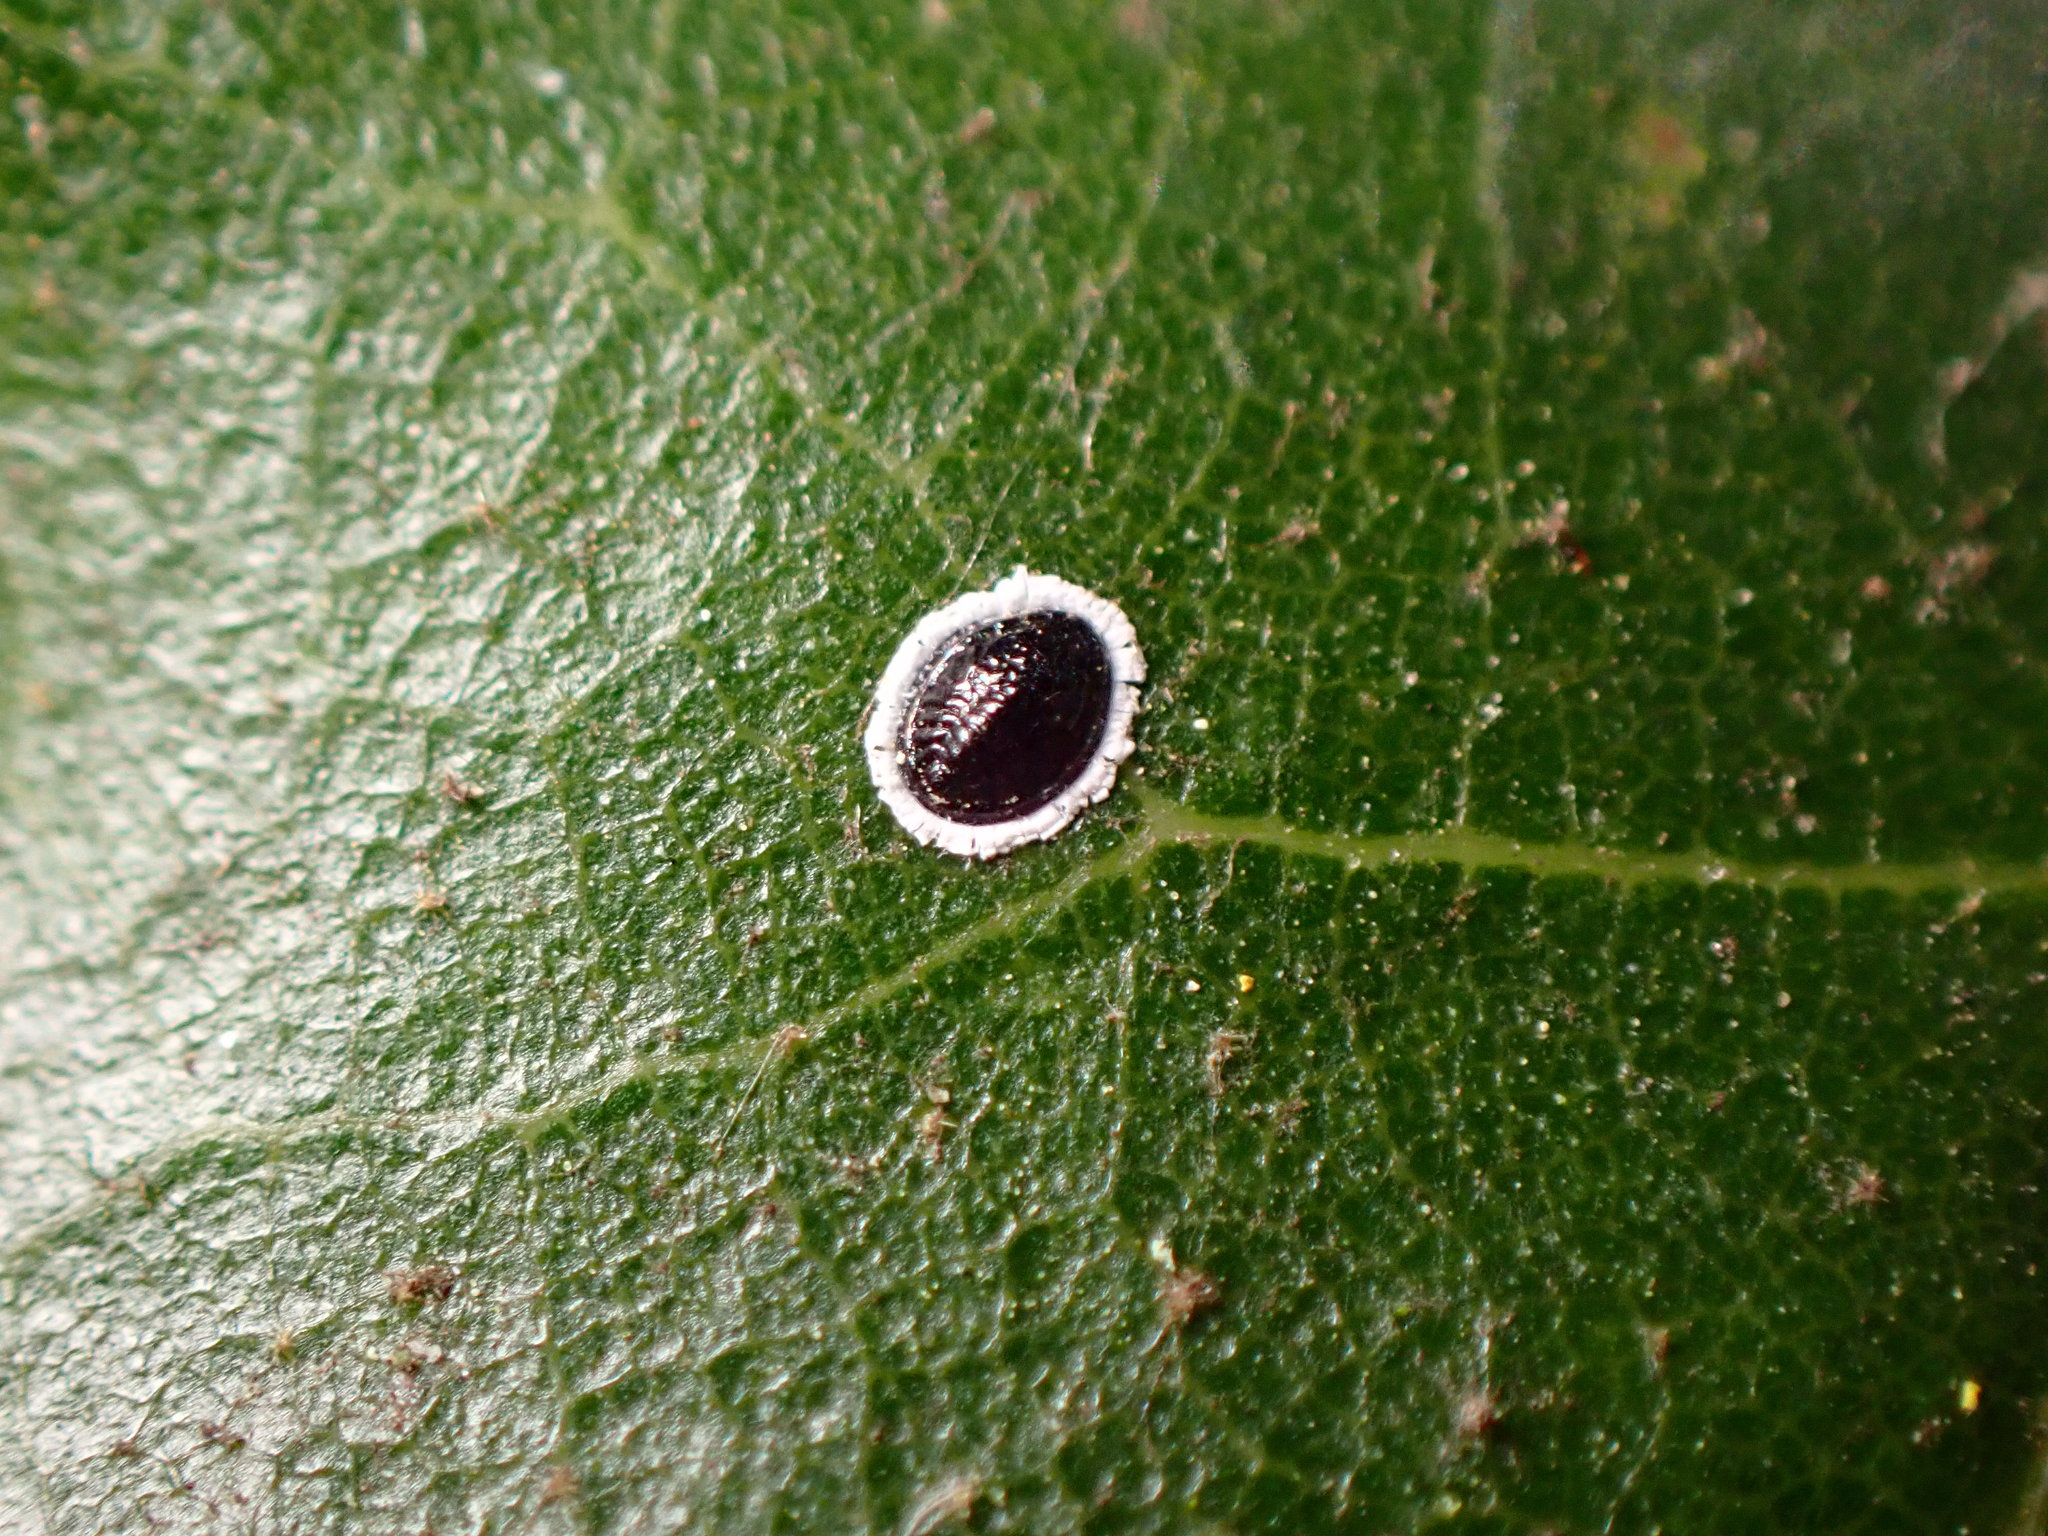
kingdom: Animalia
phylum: Arthropoda
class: Insecta
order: Hemiptera
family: Aleyrodidae
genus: Tetraleurodes
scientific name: Tetraleurodes perileuca
